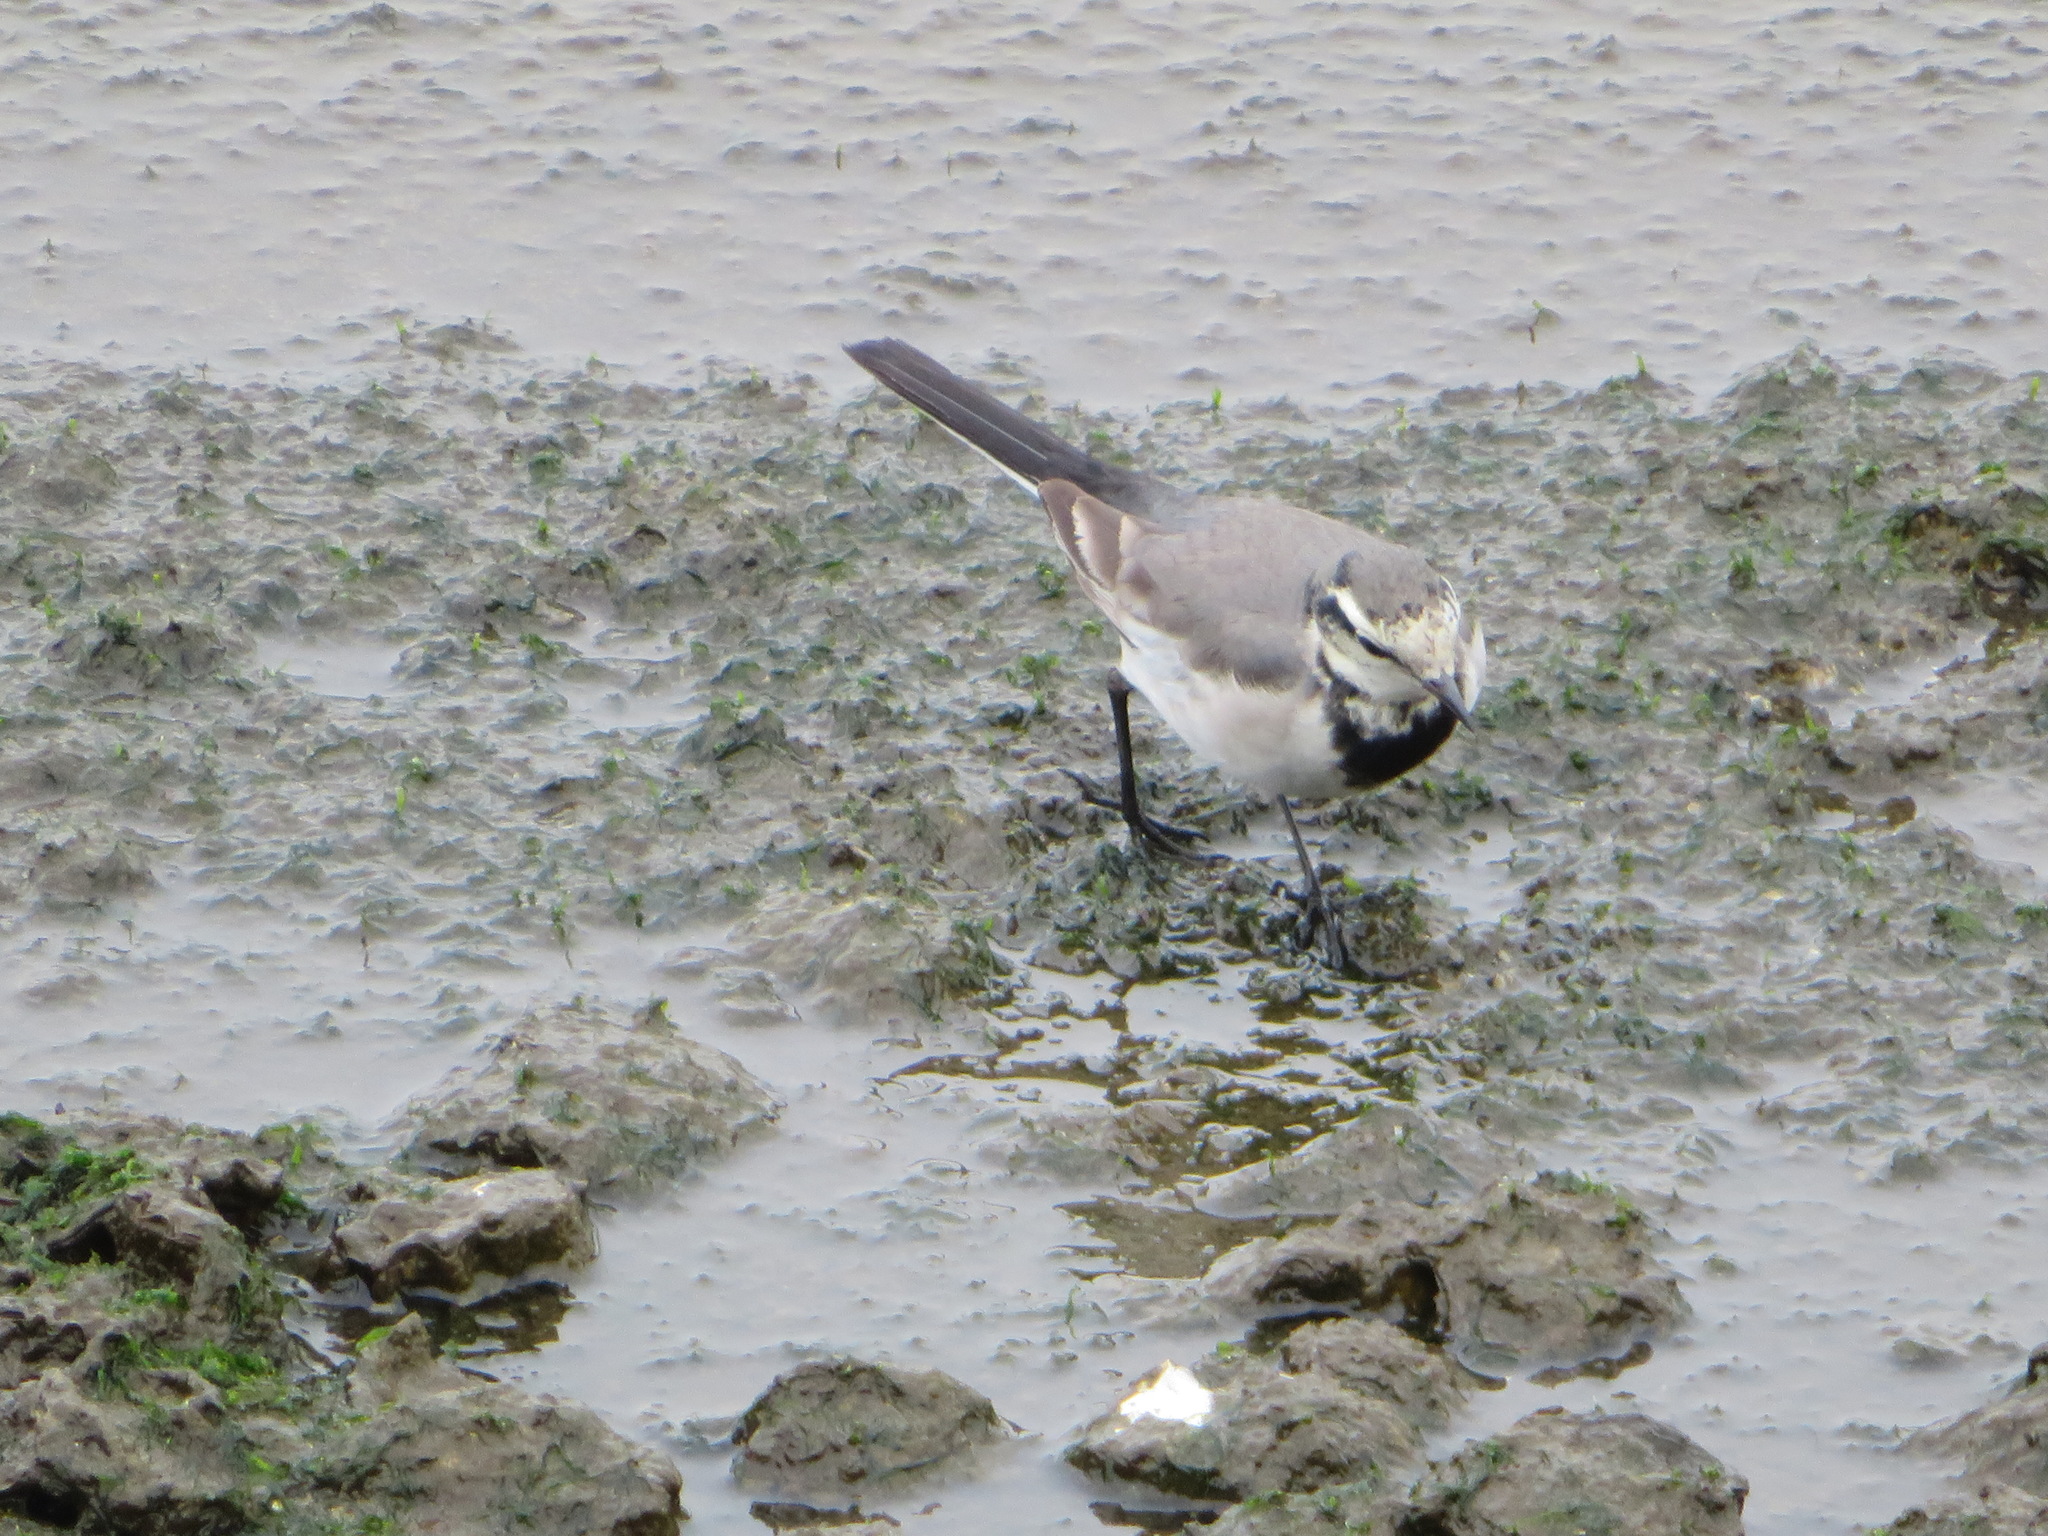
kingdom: Animalia
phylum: Chordata
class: Aves
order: Passeriformes
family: Motacillidae
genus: Motacilla
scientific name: Motacilla alba
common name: White wagtail
